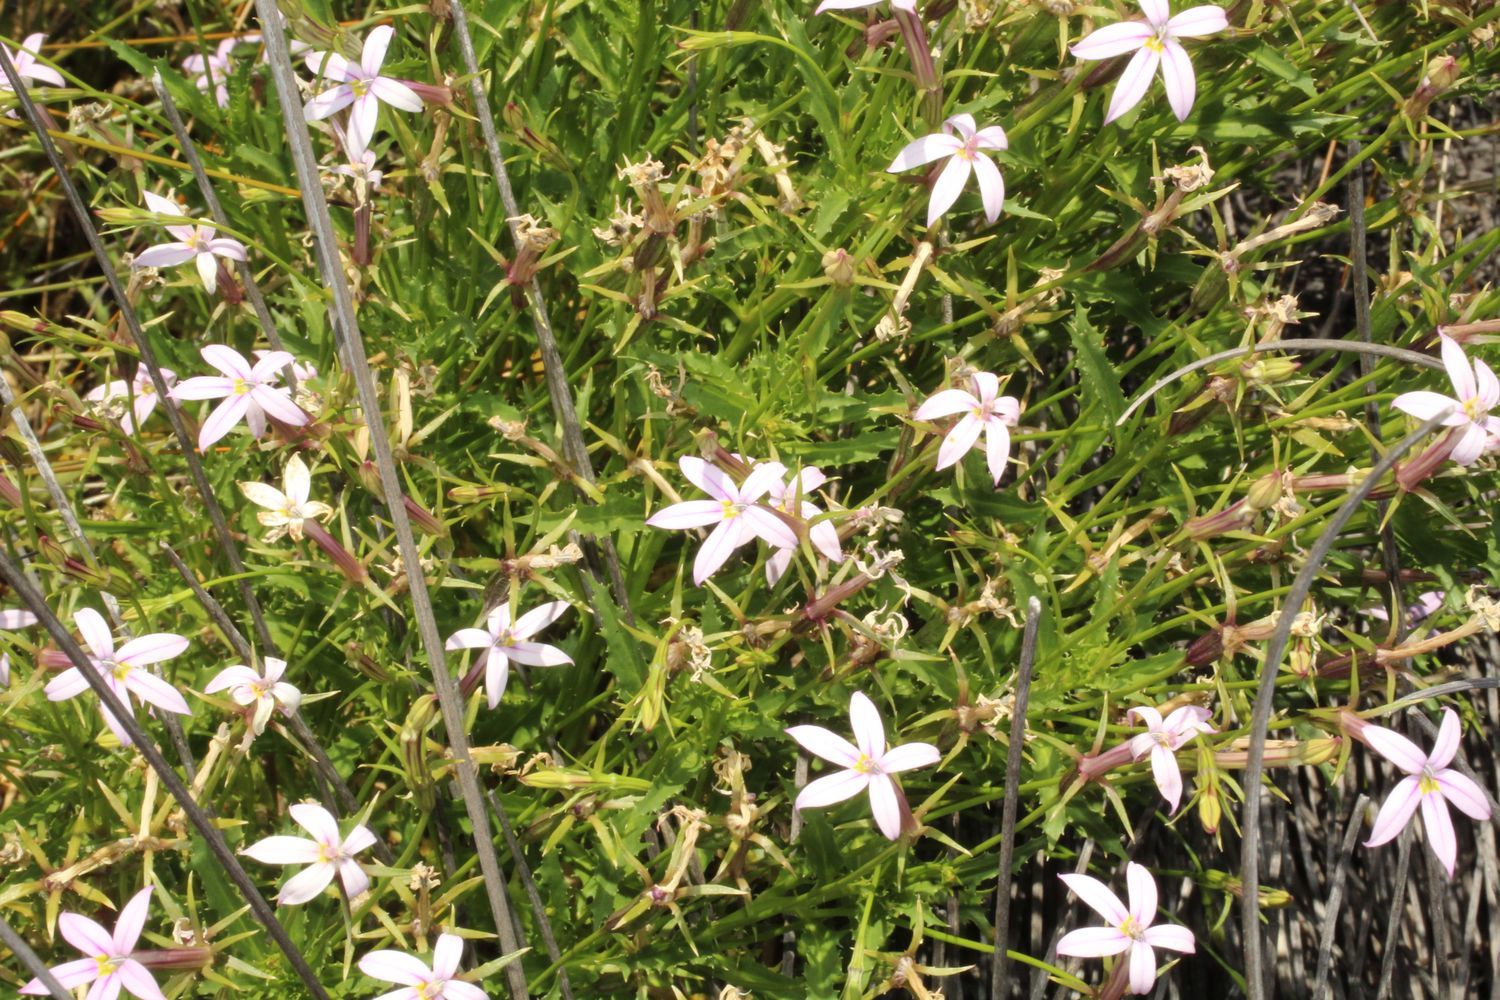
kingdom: Plantae
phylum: Tracheophyta
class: Magnoliopsida
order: Asterales
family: Campanulaceae
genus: Lithotoma
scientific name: Lithotoma axillaris
